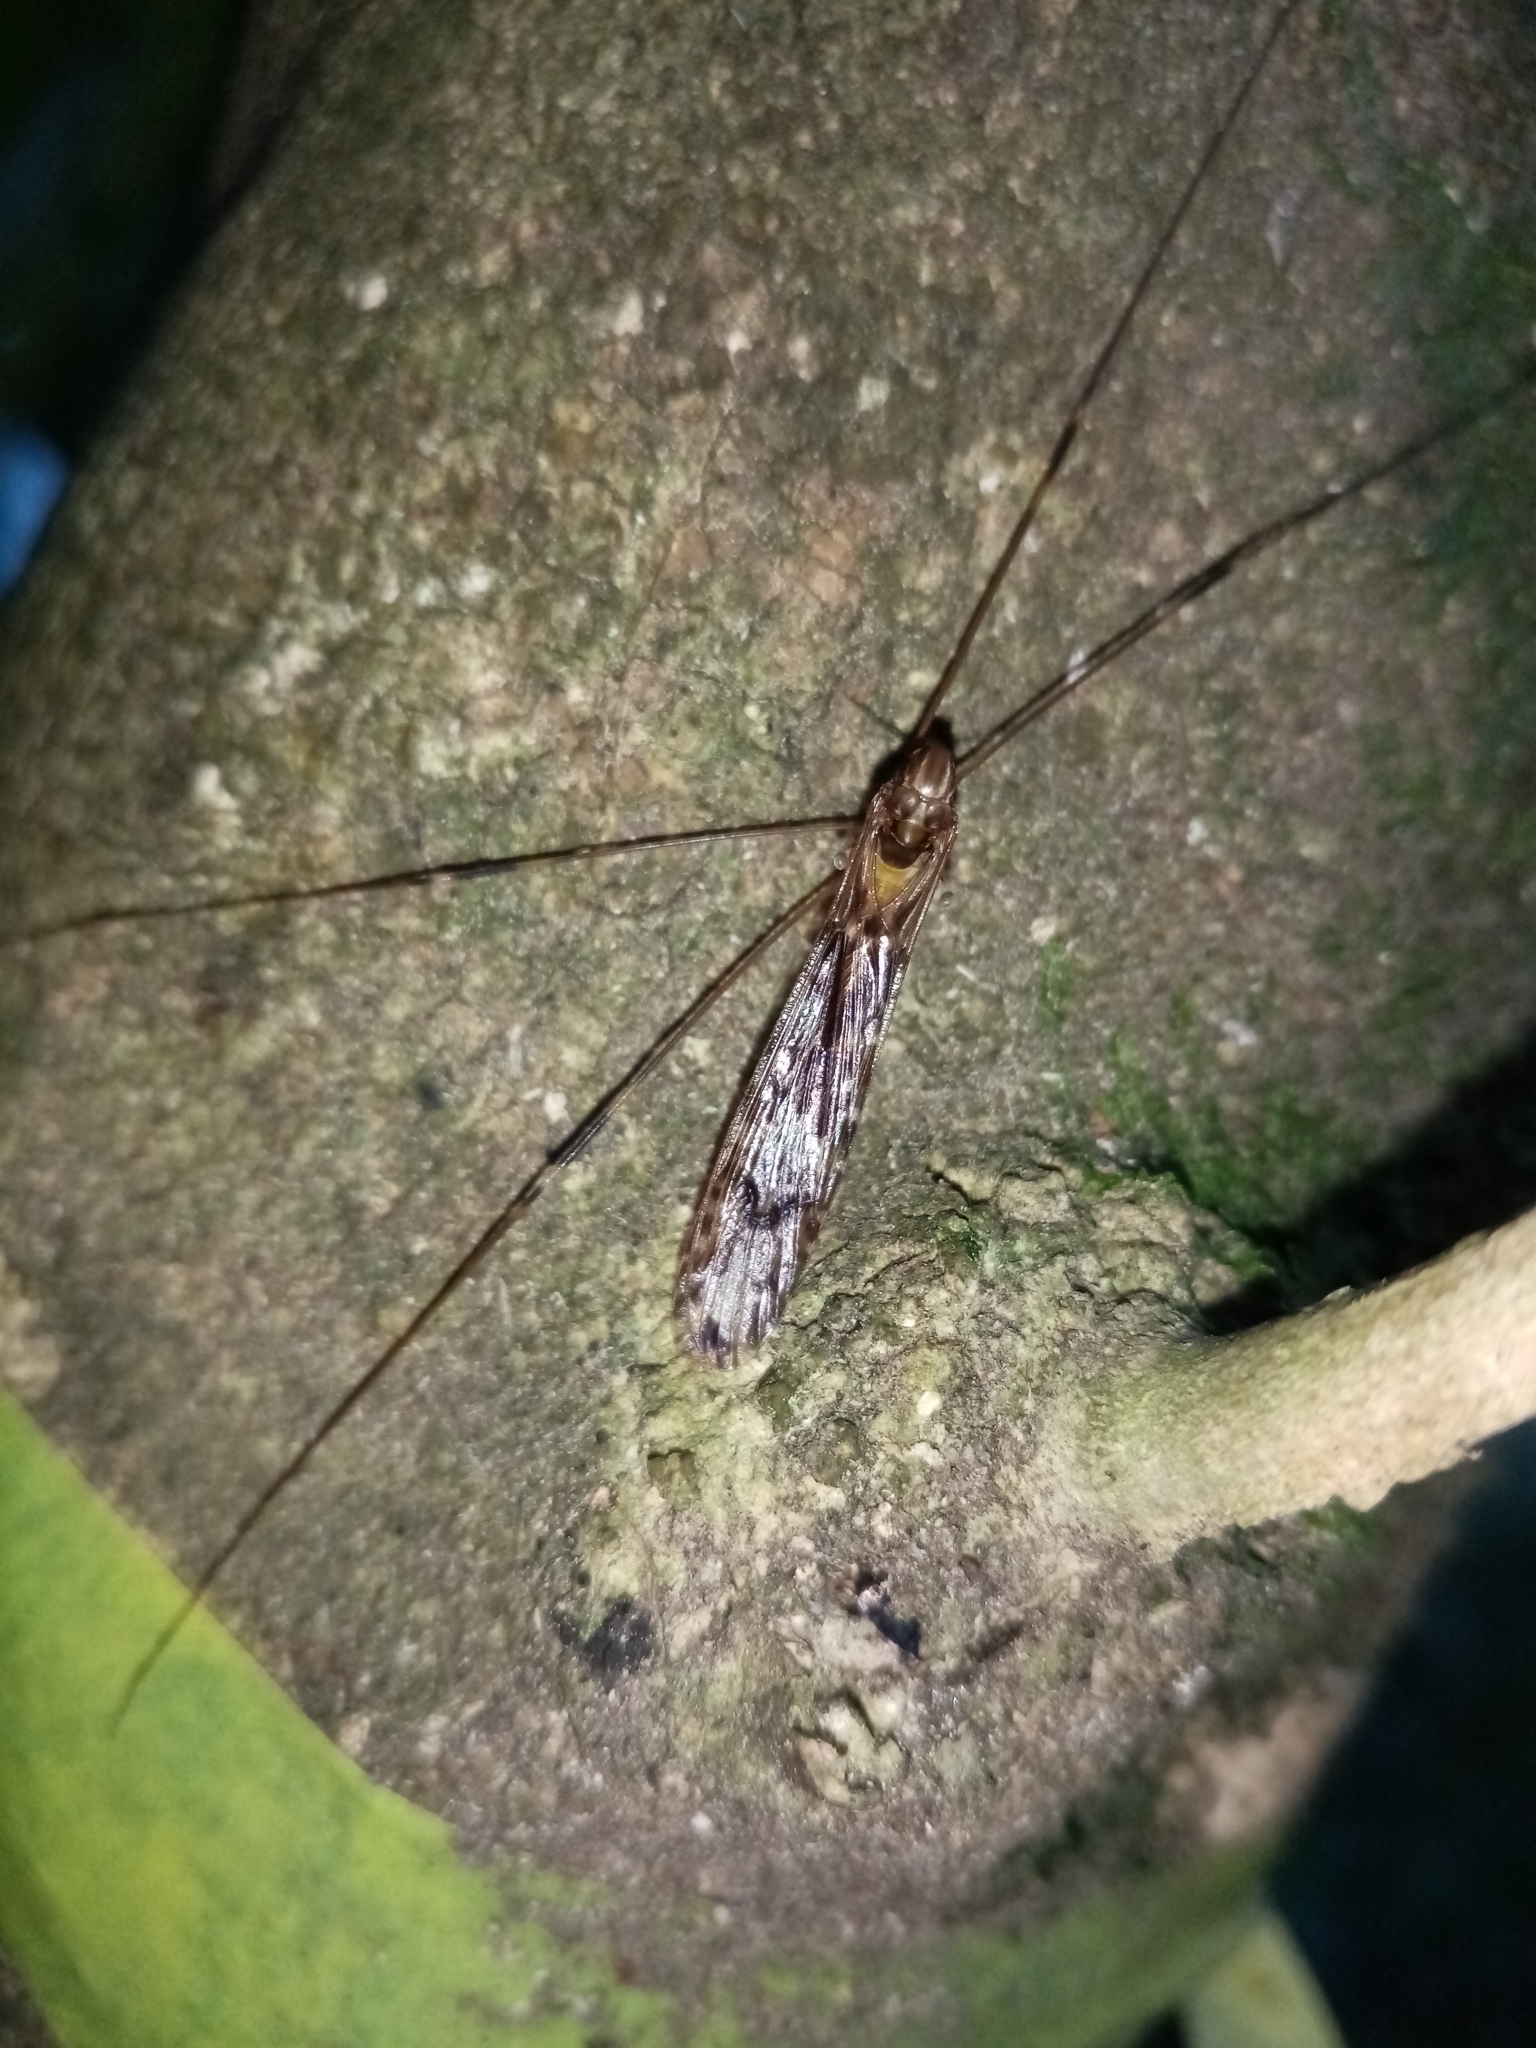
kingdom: Animalia
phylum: Arthropoda
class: Insecta
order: Diptera
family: Limoniidae
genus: Discobola
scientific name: Discobola dohrni
